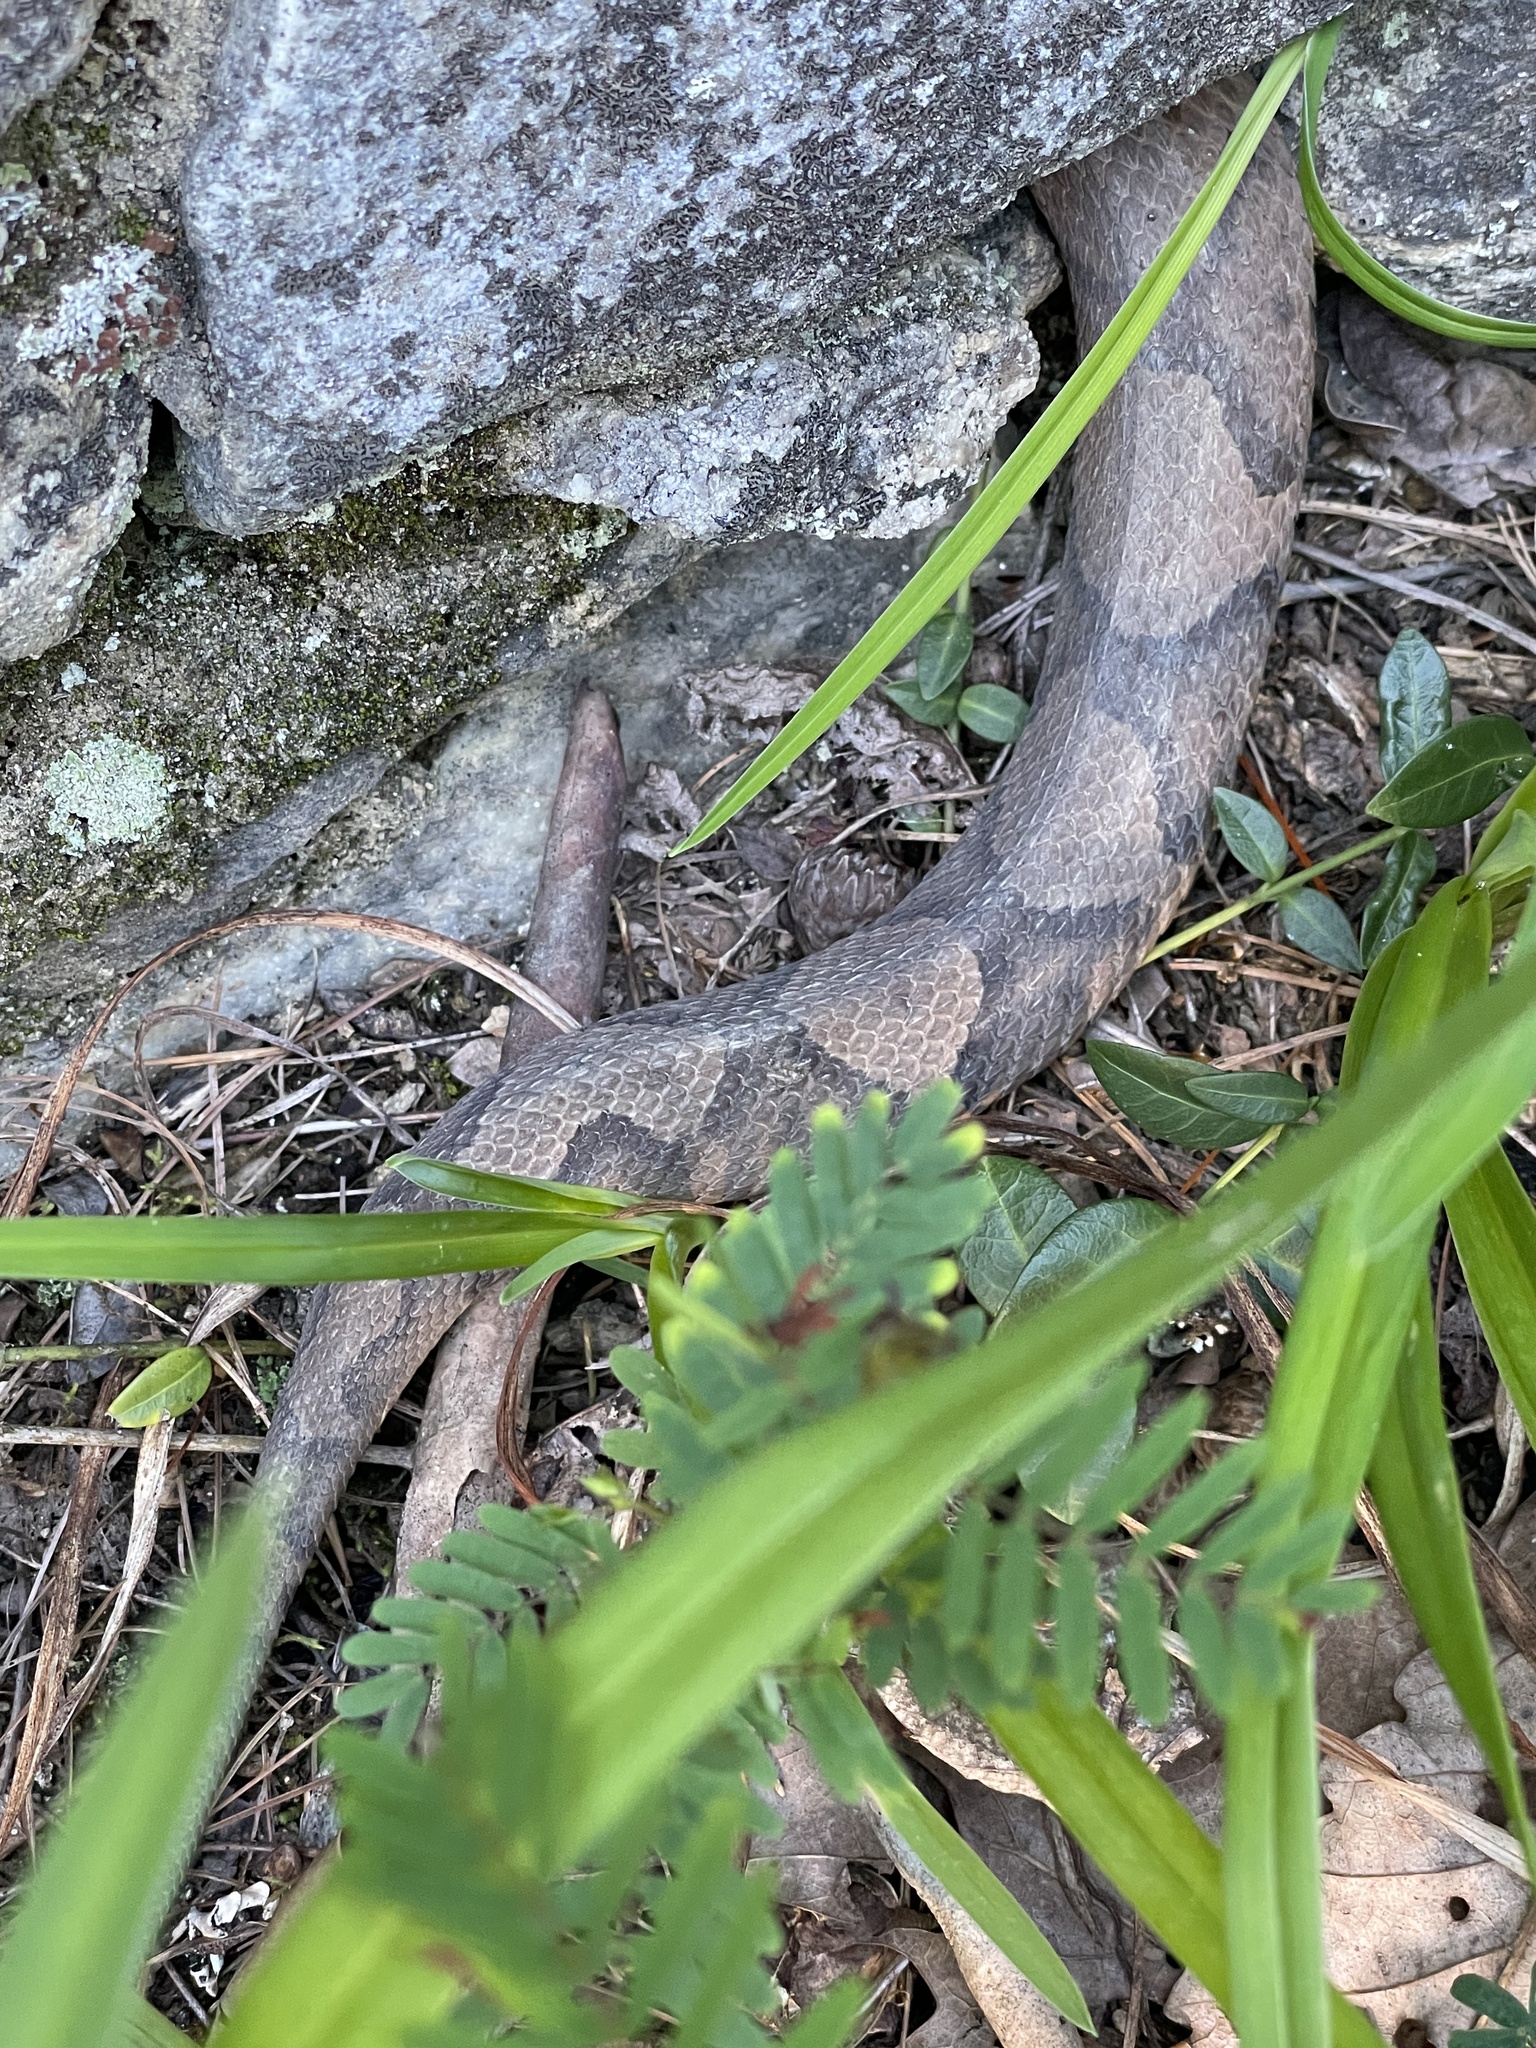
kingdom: Animalia
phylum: Chordata
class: Squamata
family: Viperidae
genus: Agkistrodon
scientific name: Agkistrodon contortrix
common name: Northern copperhead
